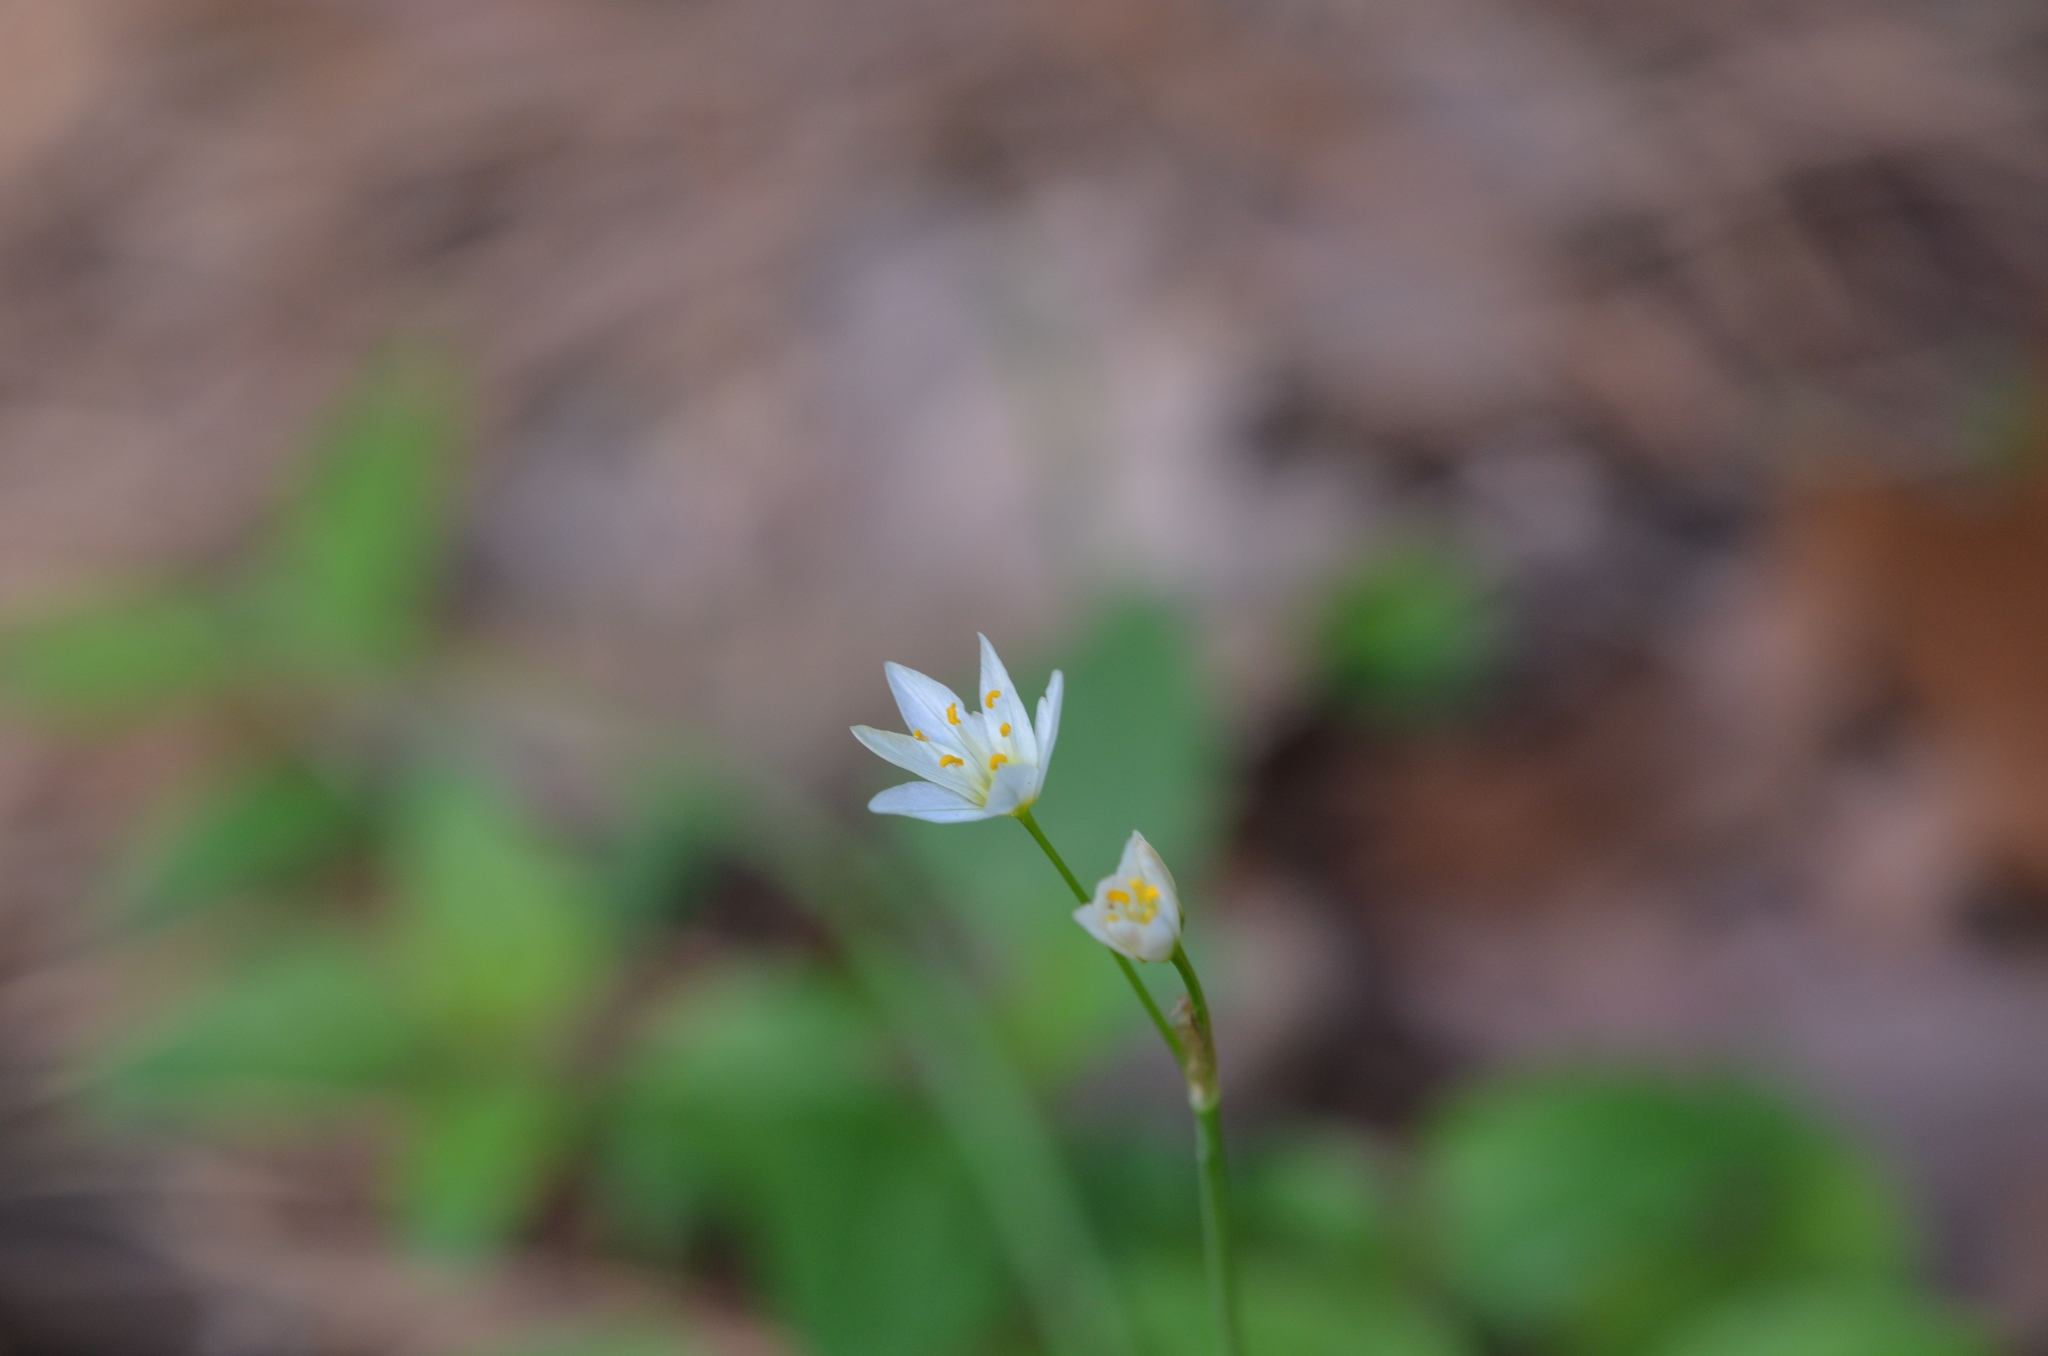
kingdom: Plantae
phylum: Tracheophyta
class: Liliopsida
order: Asparagales
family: Amaryllidaceae
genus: Nothoscordum
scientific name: Nothoscordum bivalve
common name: Crow-poison
